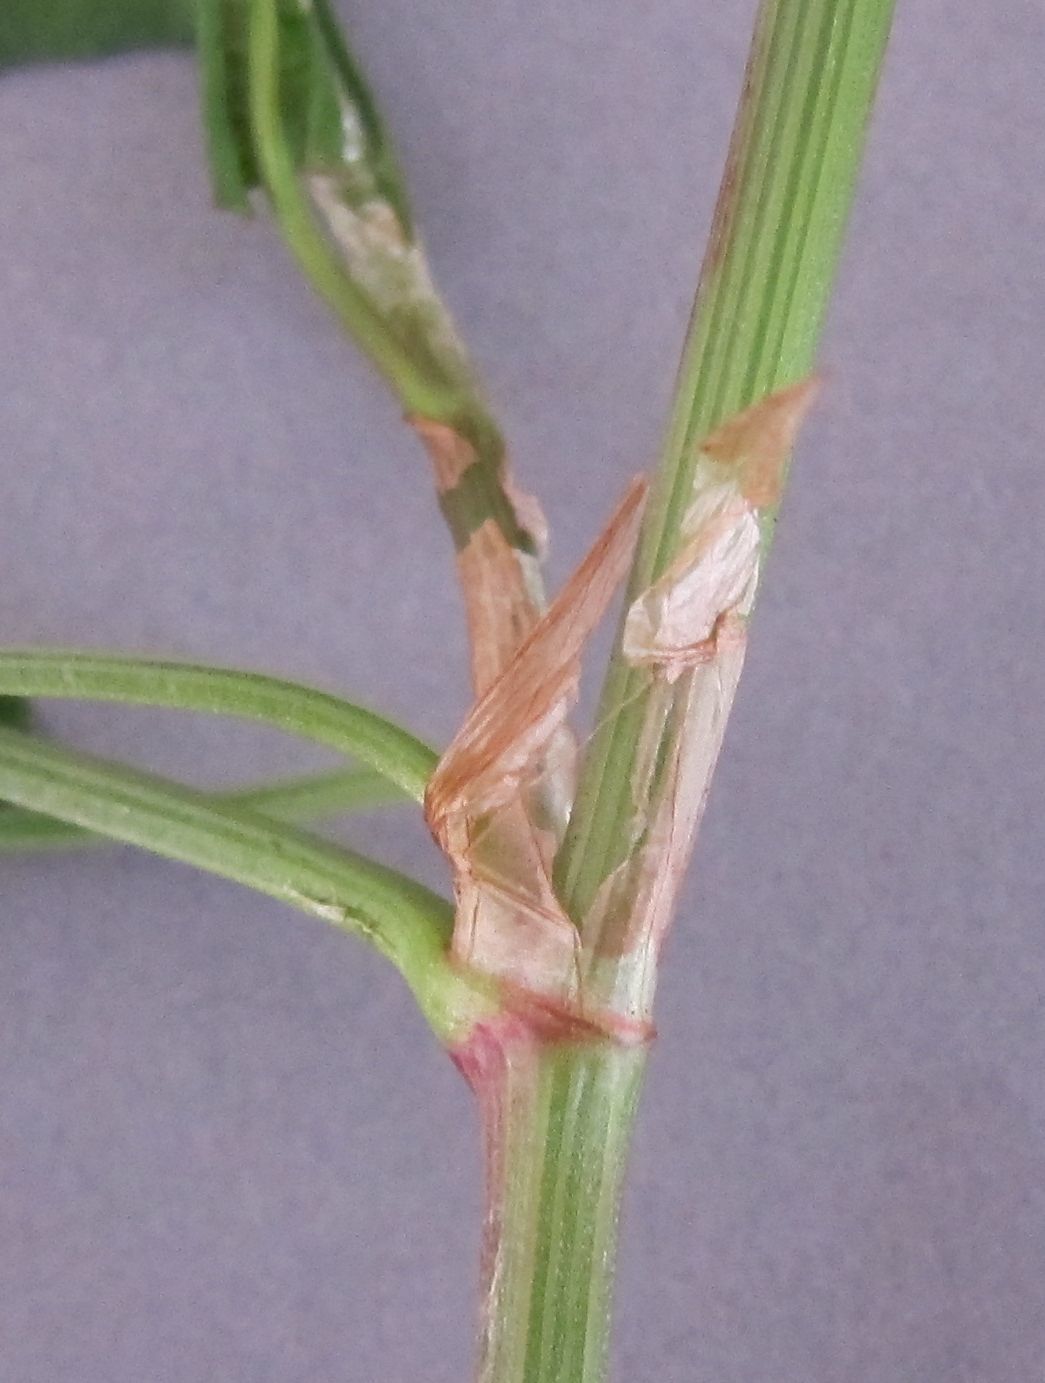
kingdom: Plantae
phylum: Tracheophyta
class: Magnoliopsida
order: Caryophyllales
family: Polygonaceae
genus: Rumex
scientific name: Rumex brownii
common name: Hooked dock
